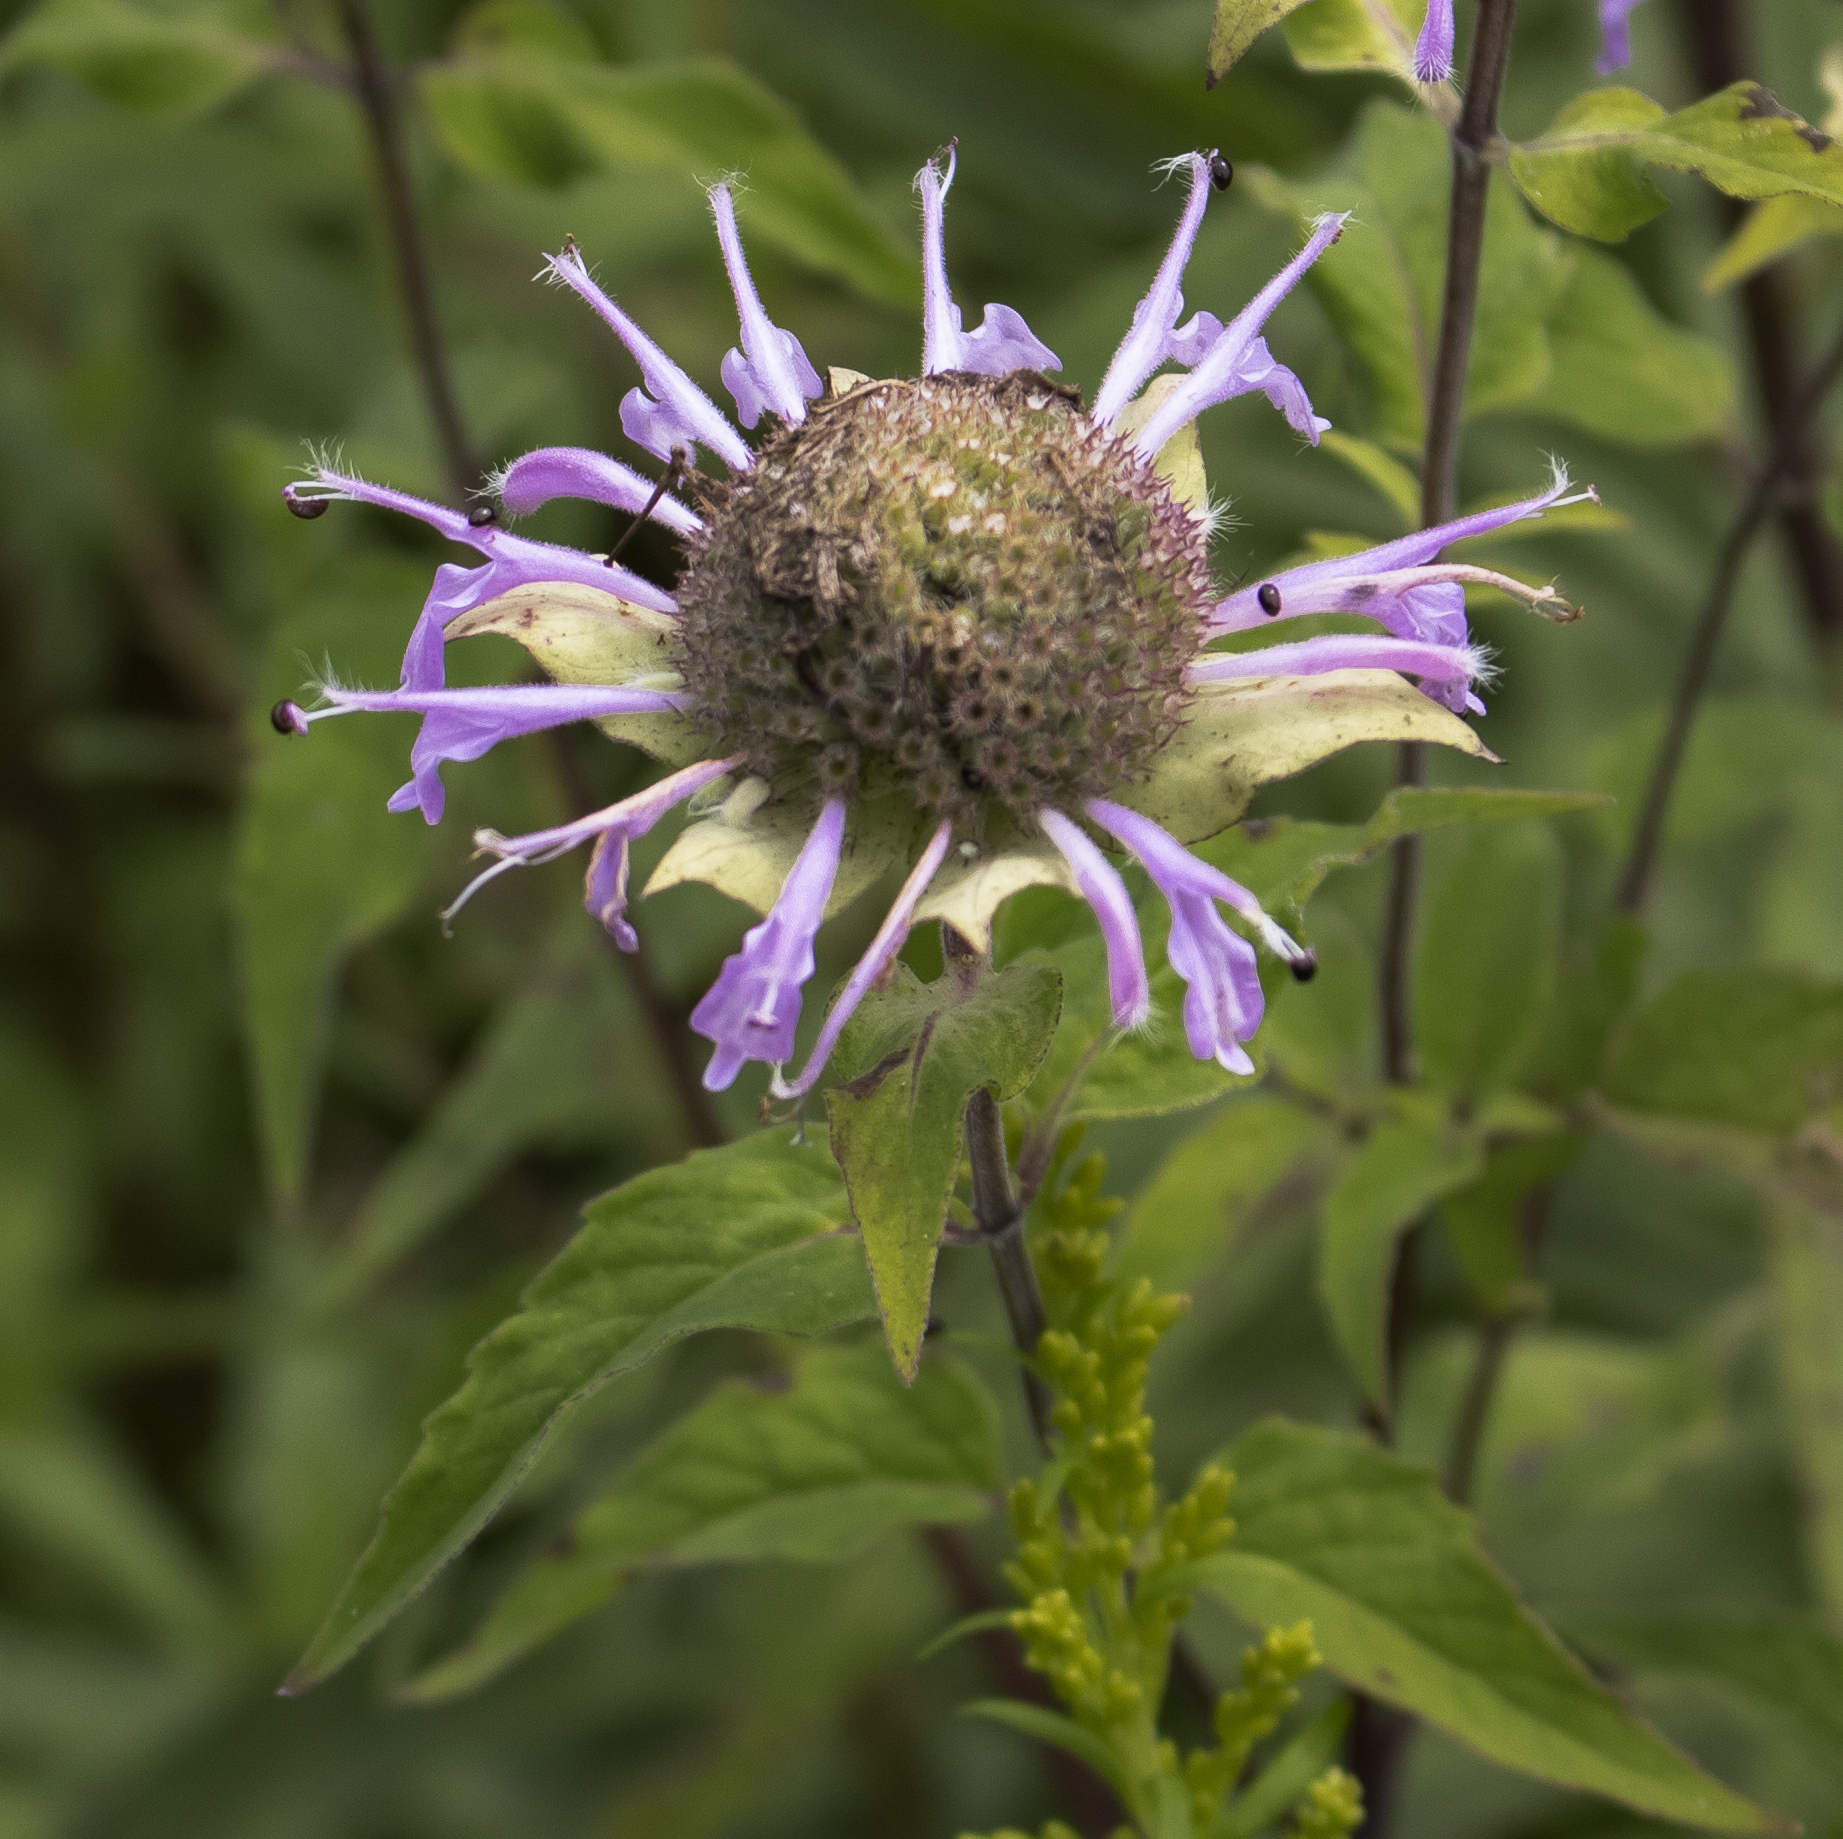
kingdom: Plantae
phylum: Tracheophyta
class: Magnoliopsida
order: Lamiales
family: Lamiaceae
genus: Monarda
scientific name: Monarda fistulosa
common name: Purple beebalm
